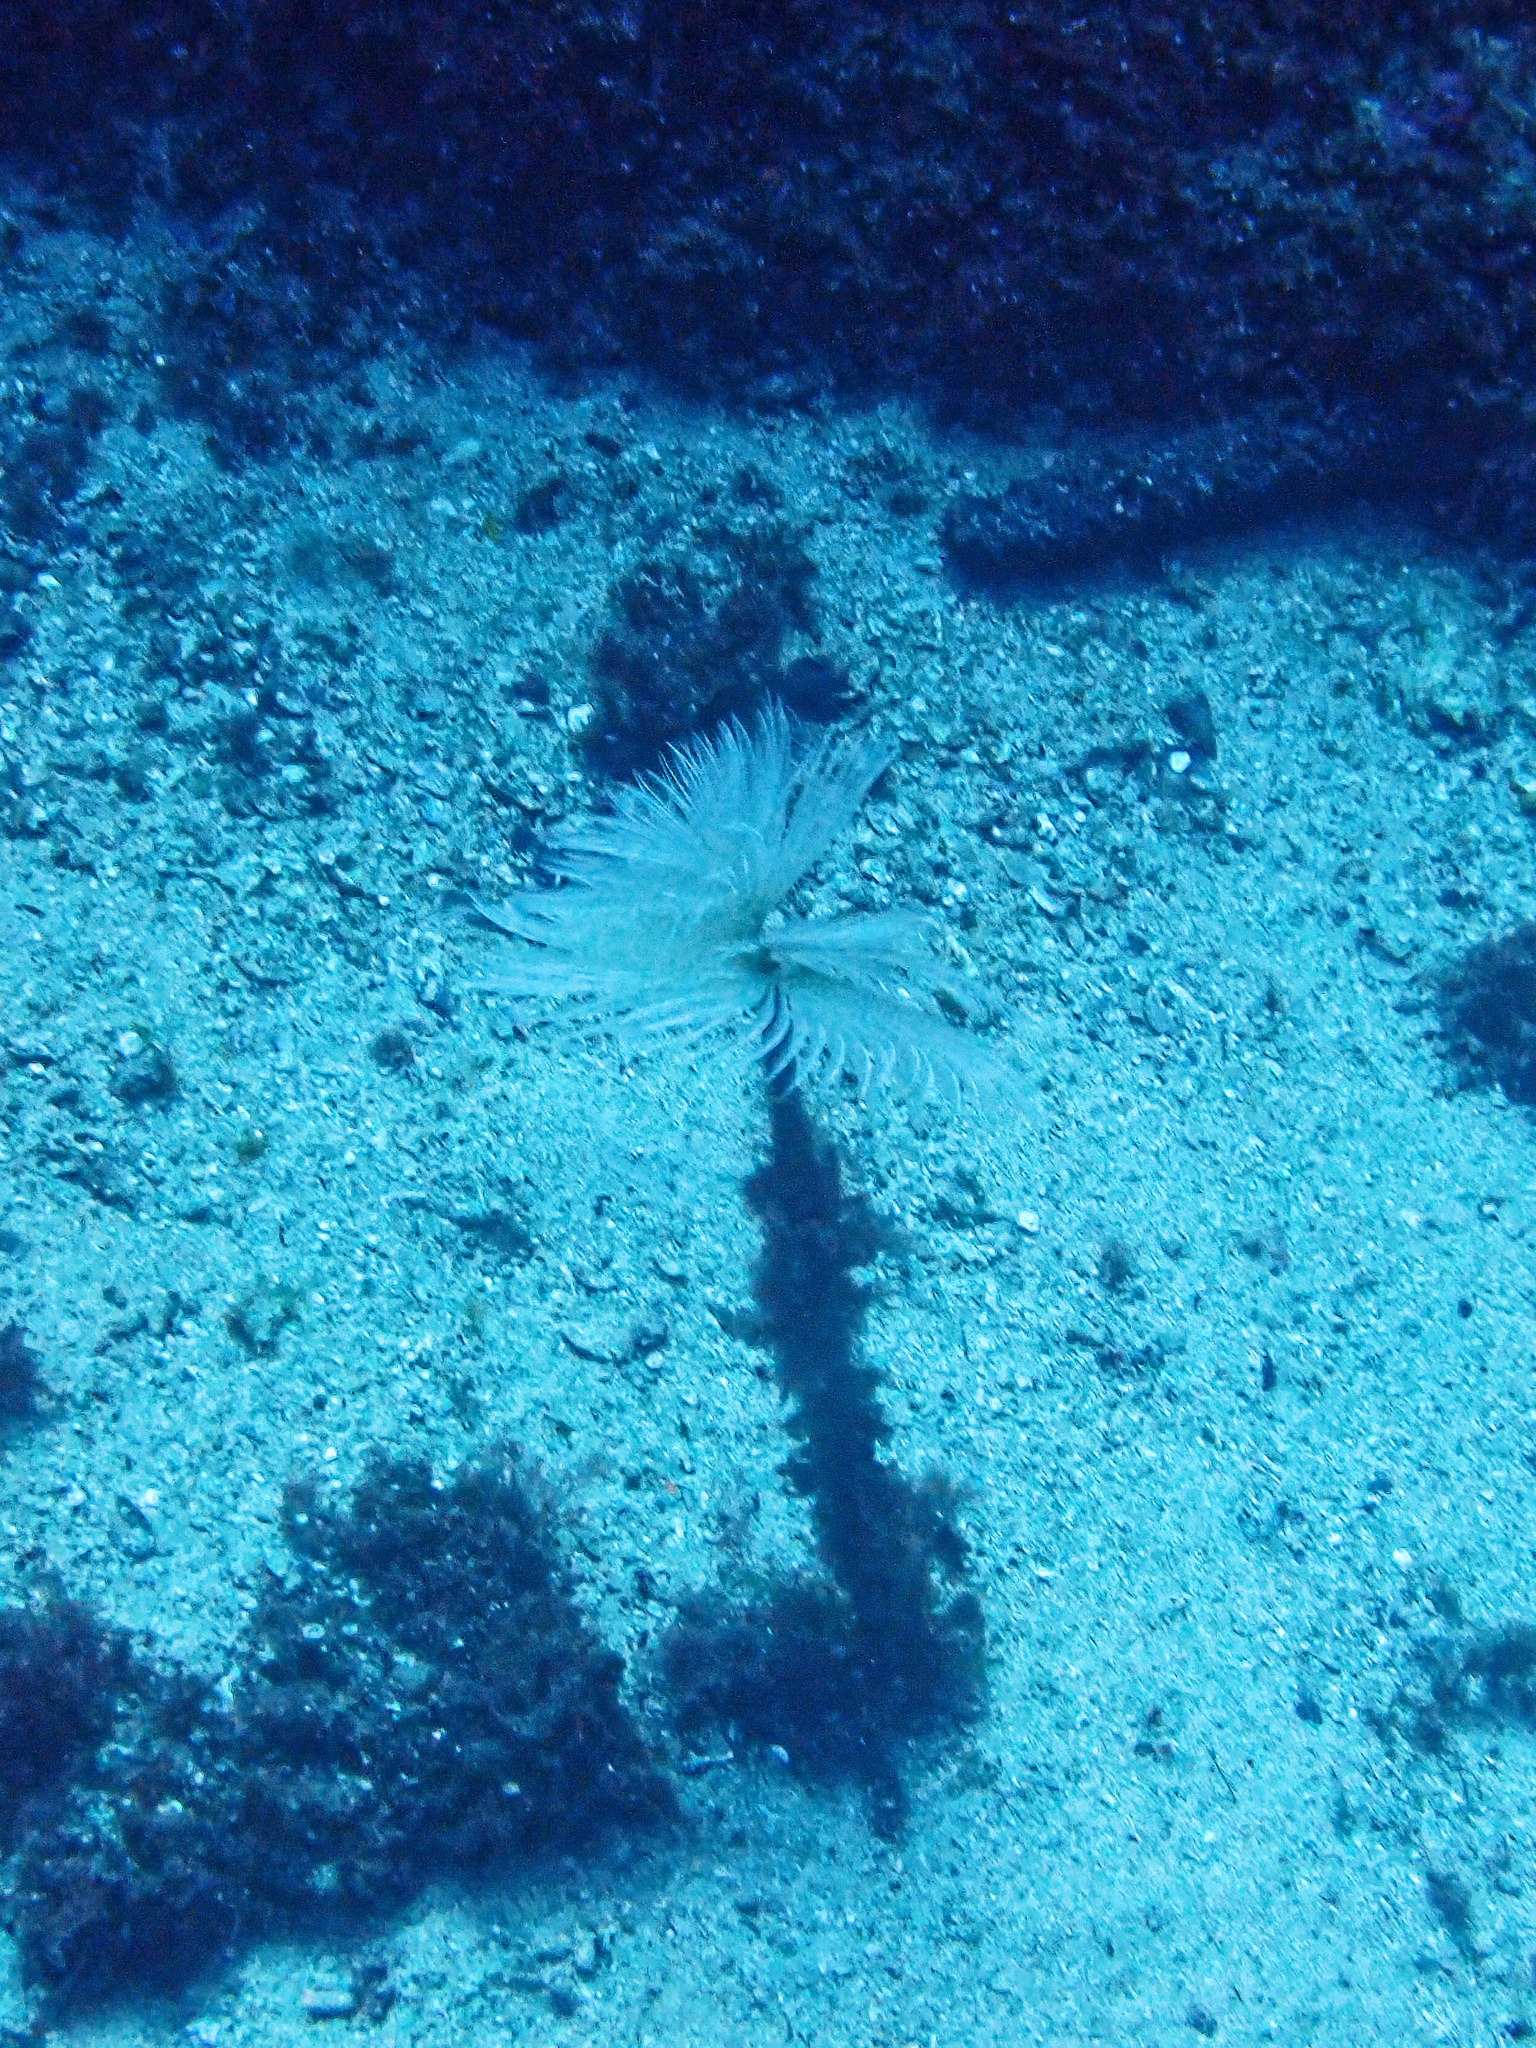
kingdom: Animalia
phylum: Annelida
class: Polychaeta
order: Sabellida
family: Sabellidae
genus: Sabella
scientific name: Sabella spallanzanii
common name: Feather duster worm
